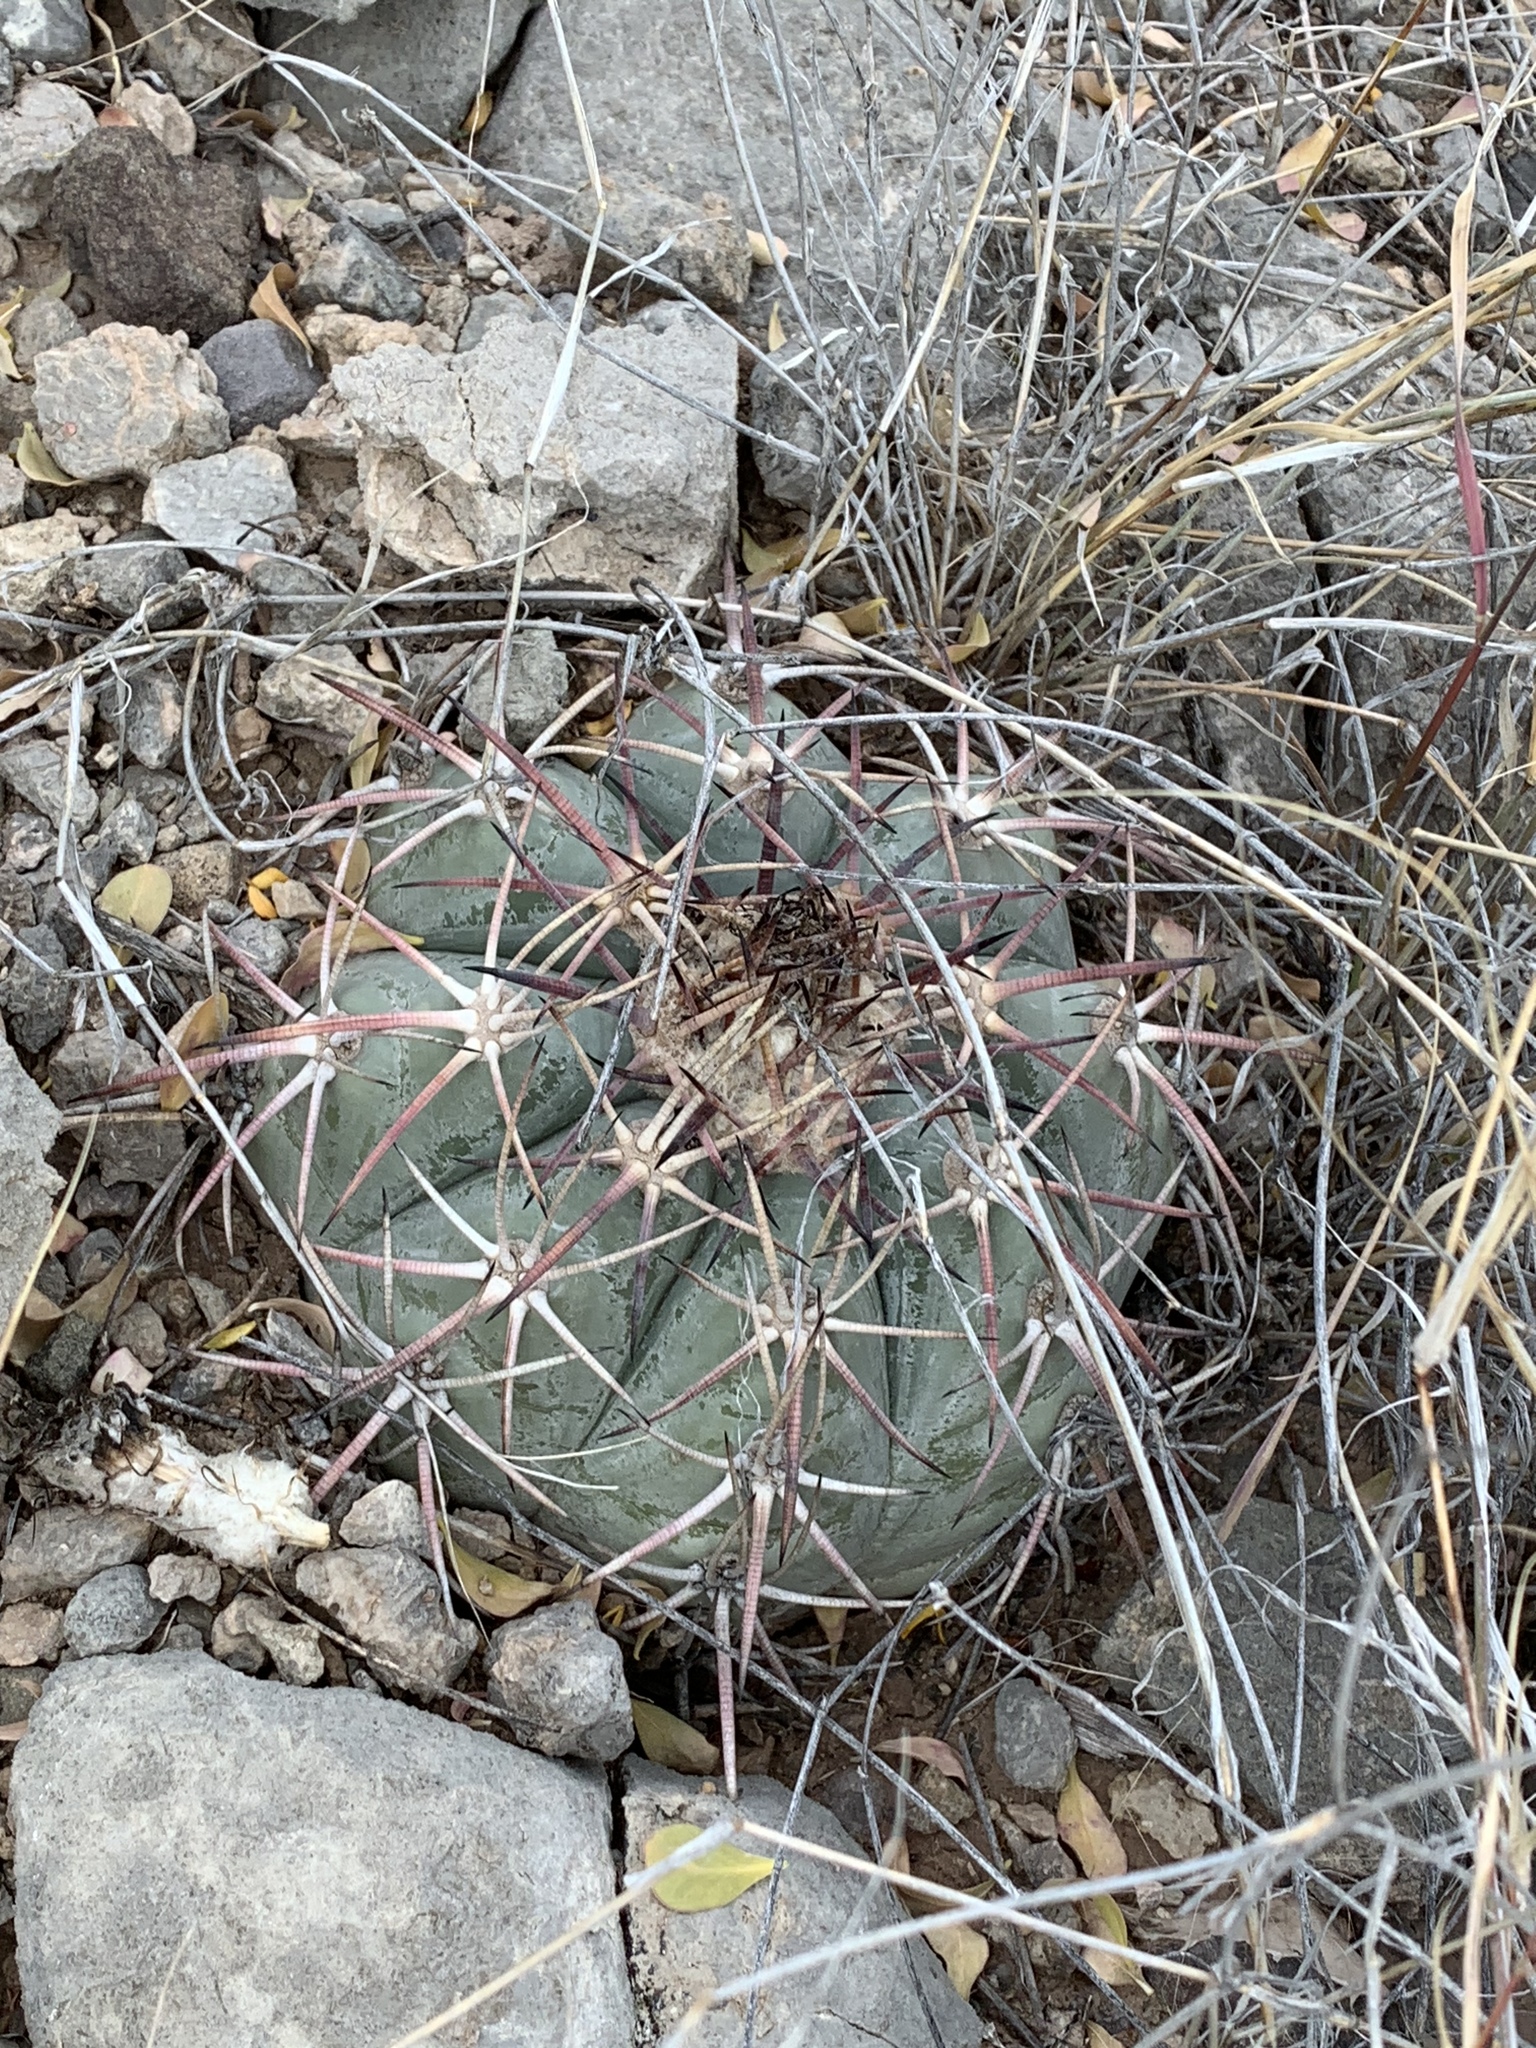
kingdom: Plantae
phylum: Tracheophyta
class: Magnoliopsida
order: Caryophyllales
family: Cactaceae
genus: Echinocactus
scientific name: Echinocactus horizonthalonius
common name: Devilshead
